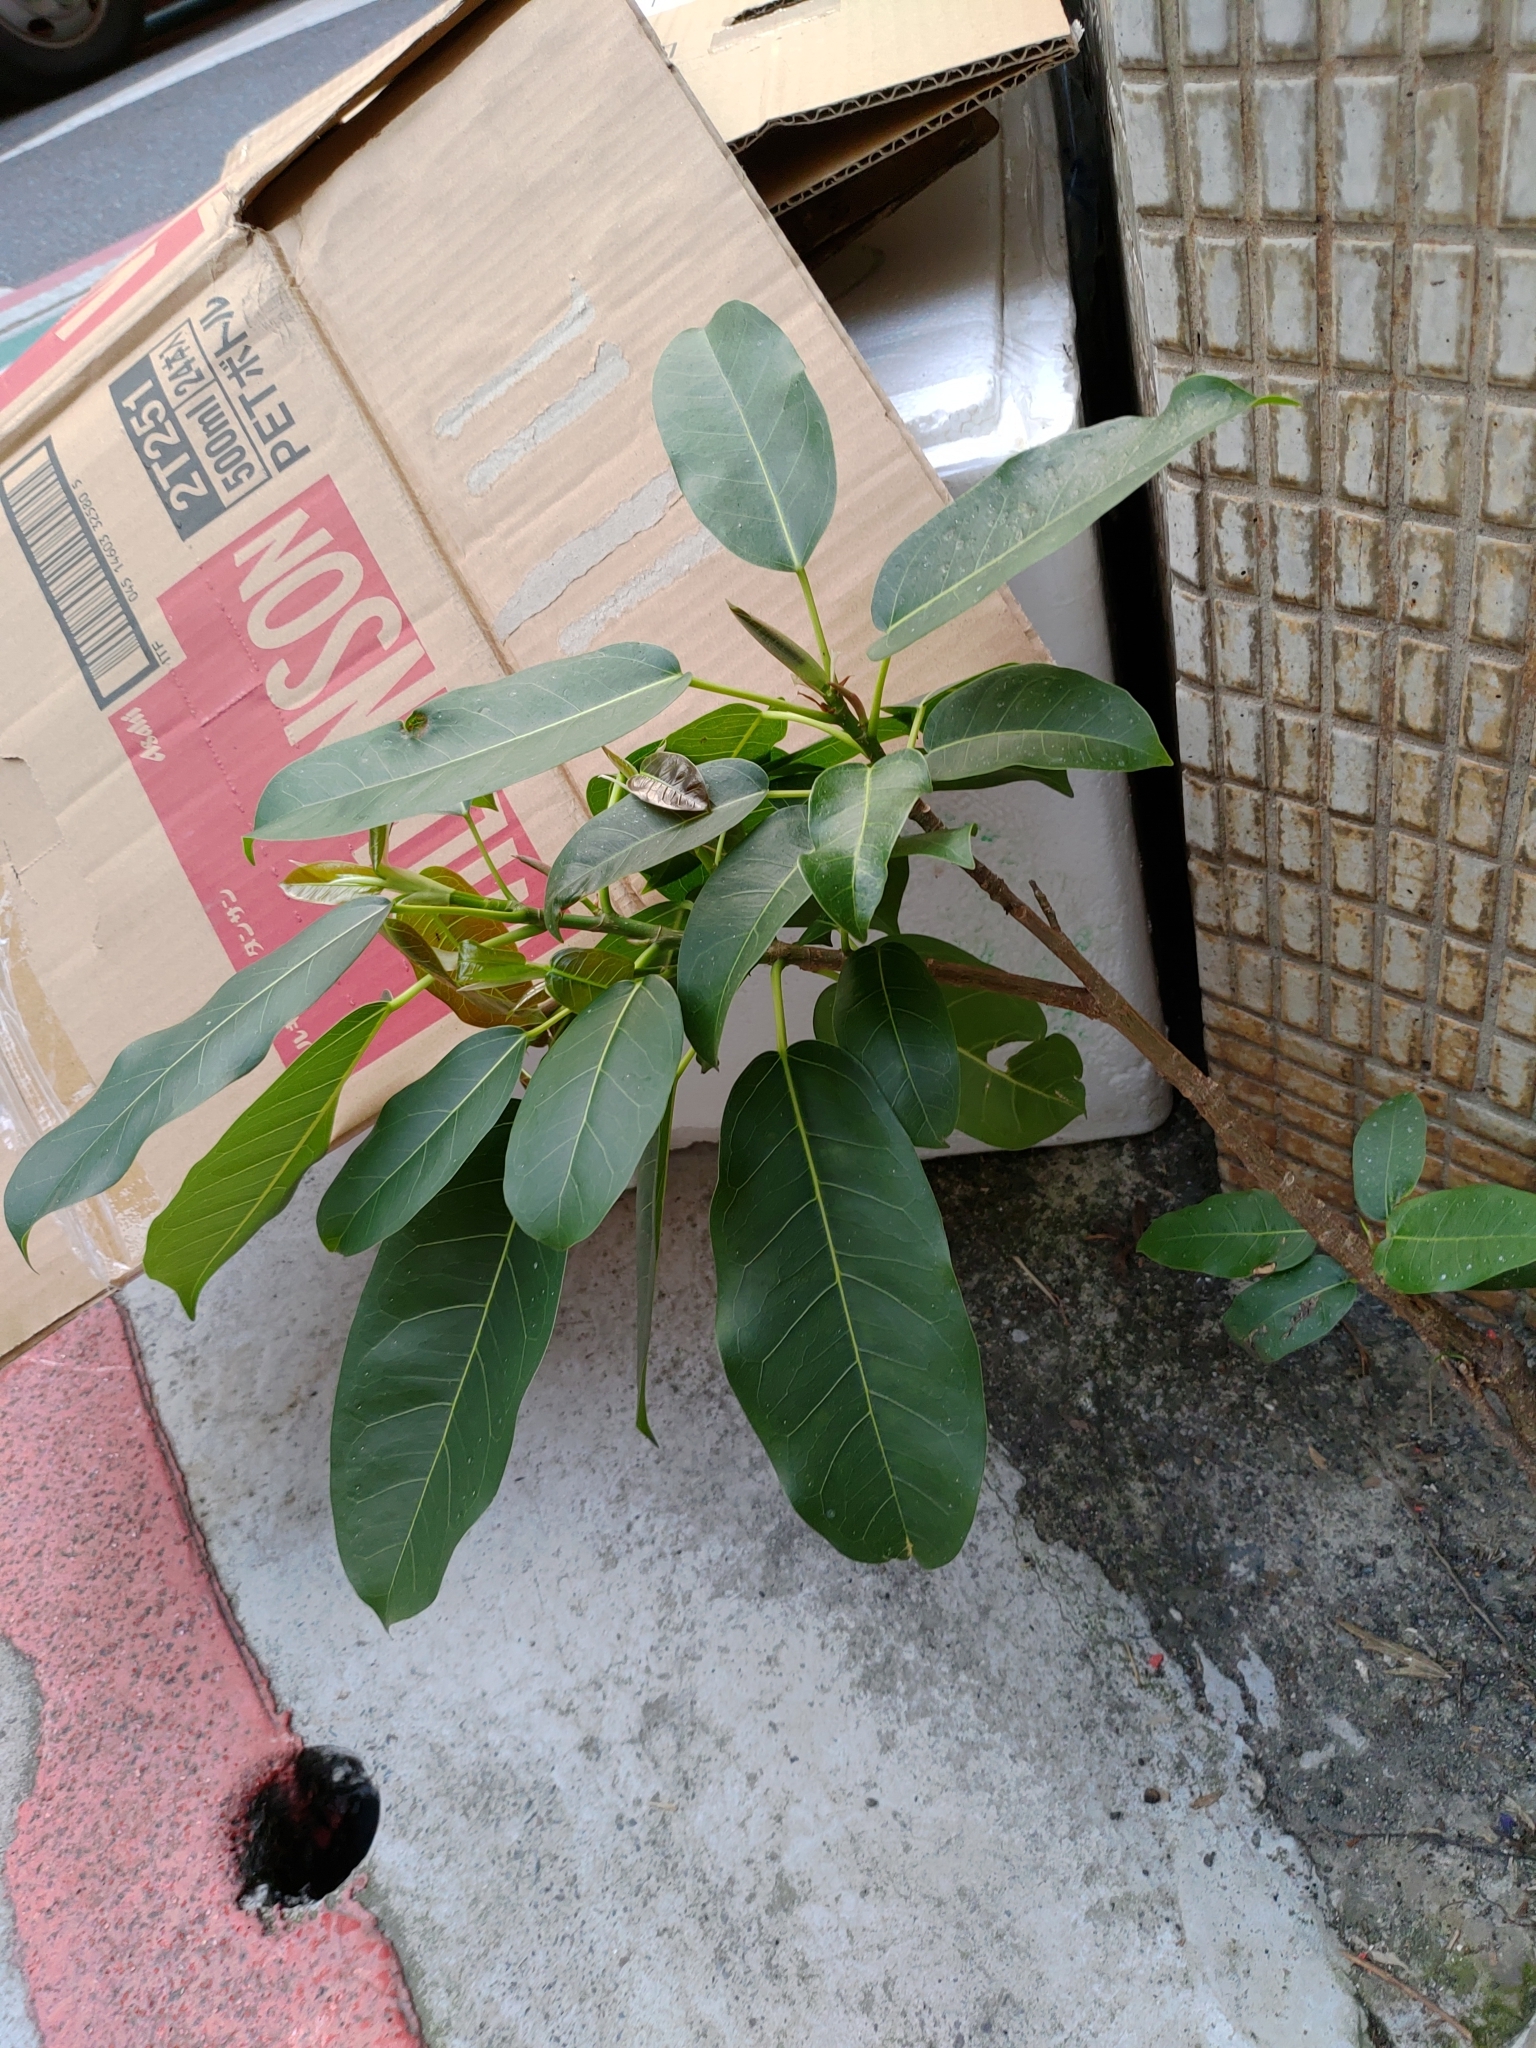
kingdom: Plantae
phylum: Tracheophyta
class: Magnoliopsida
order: Rosales
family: Moraceae
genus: Ficus
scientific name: Ficus subpisocarpa
